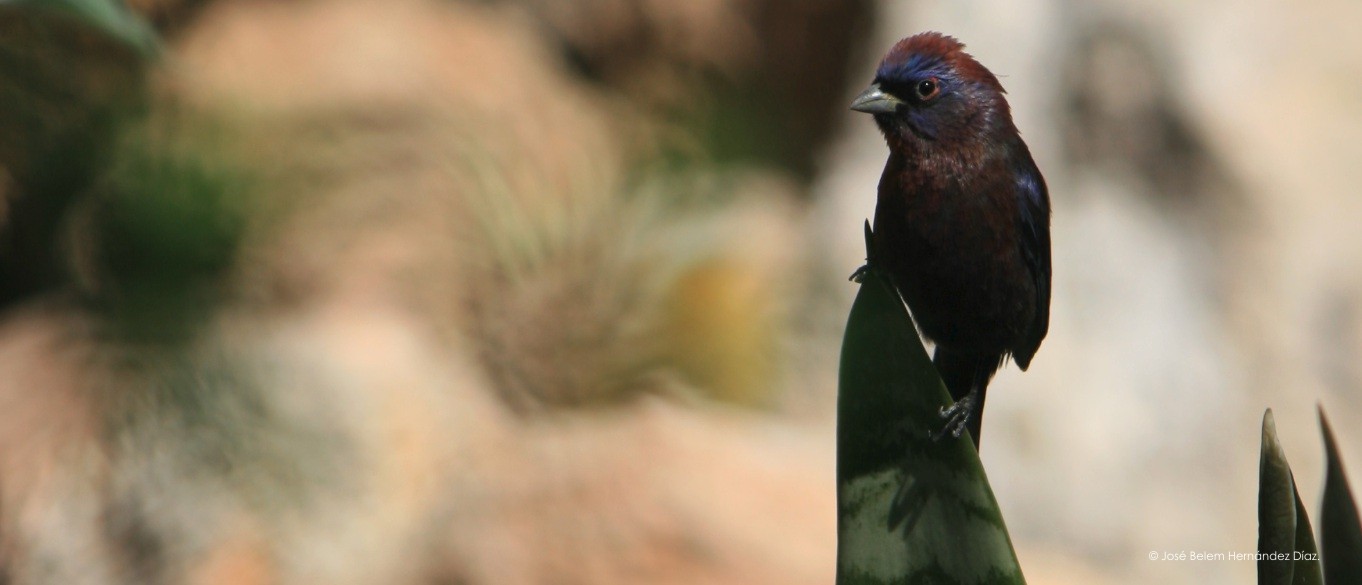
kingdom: Animalia
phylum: Chordata
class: Aves
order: Passeriformes
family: Cardinalidae
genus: Passerina
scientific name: Passerina versicolor
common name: Varied bunting
